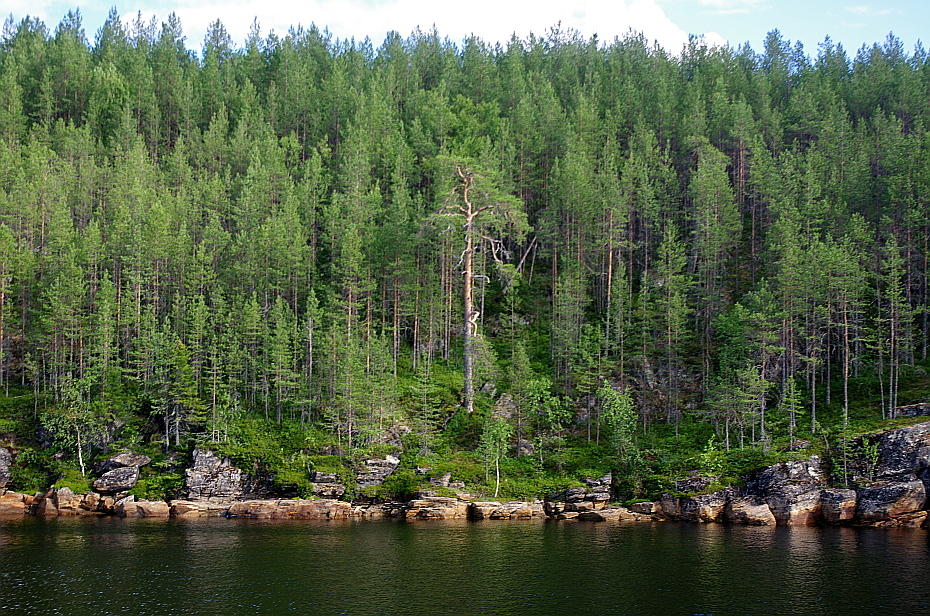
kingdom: Plantae
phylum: Tracheophyta
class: Pinopsida
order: Pinales
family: Pinaceae
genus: Pinus
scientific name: Pinus sylvestris
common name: Scots pine
